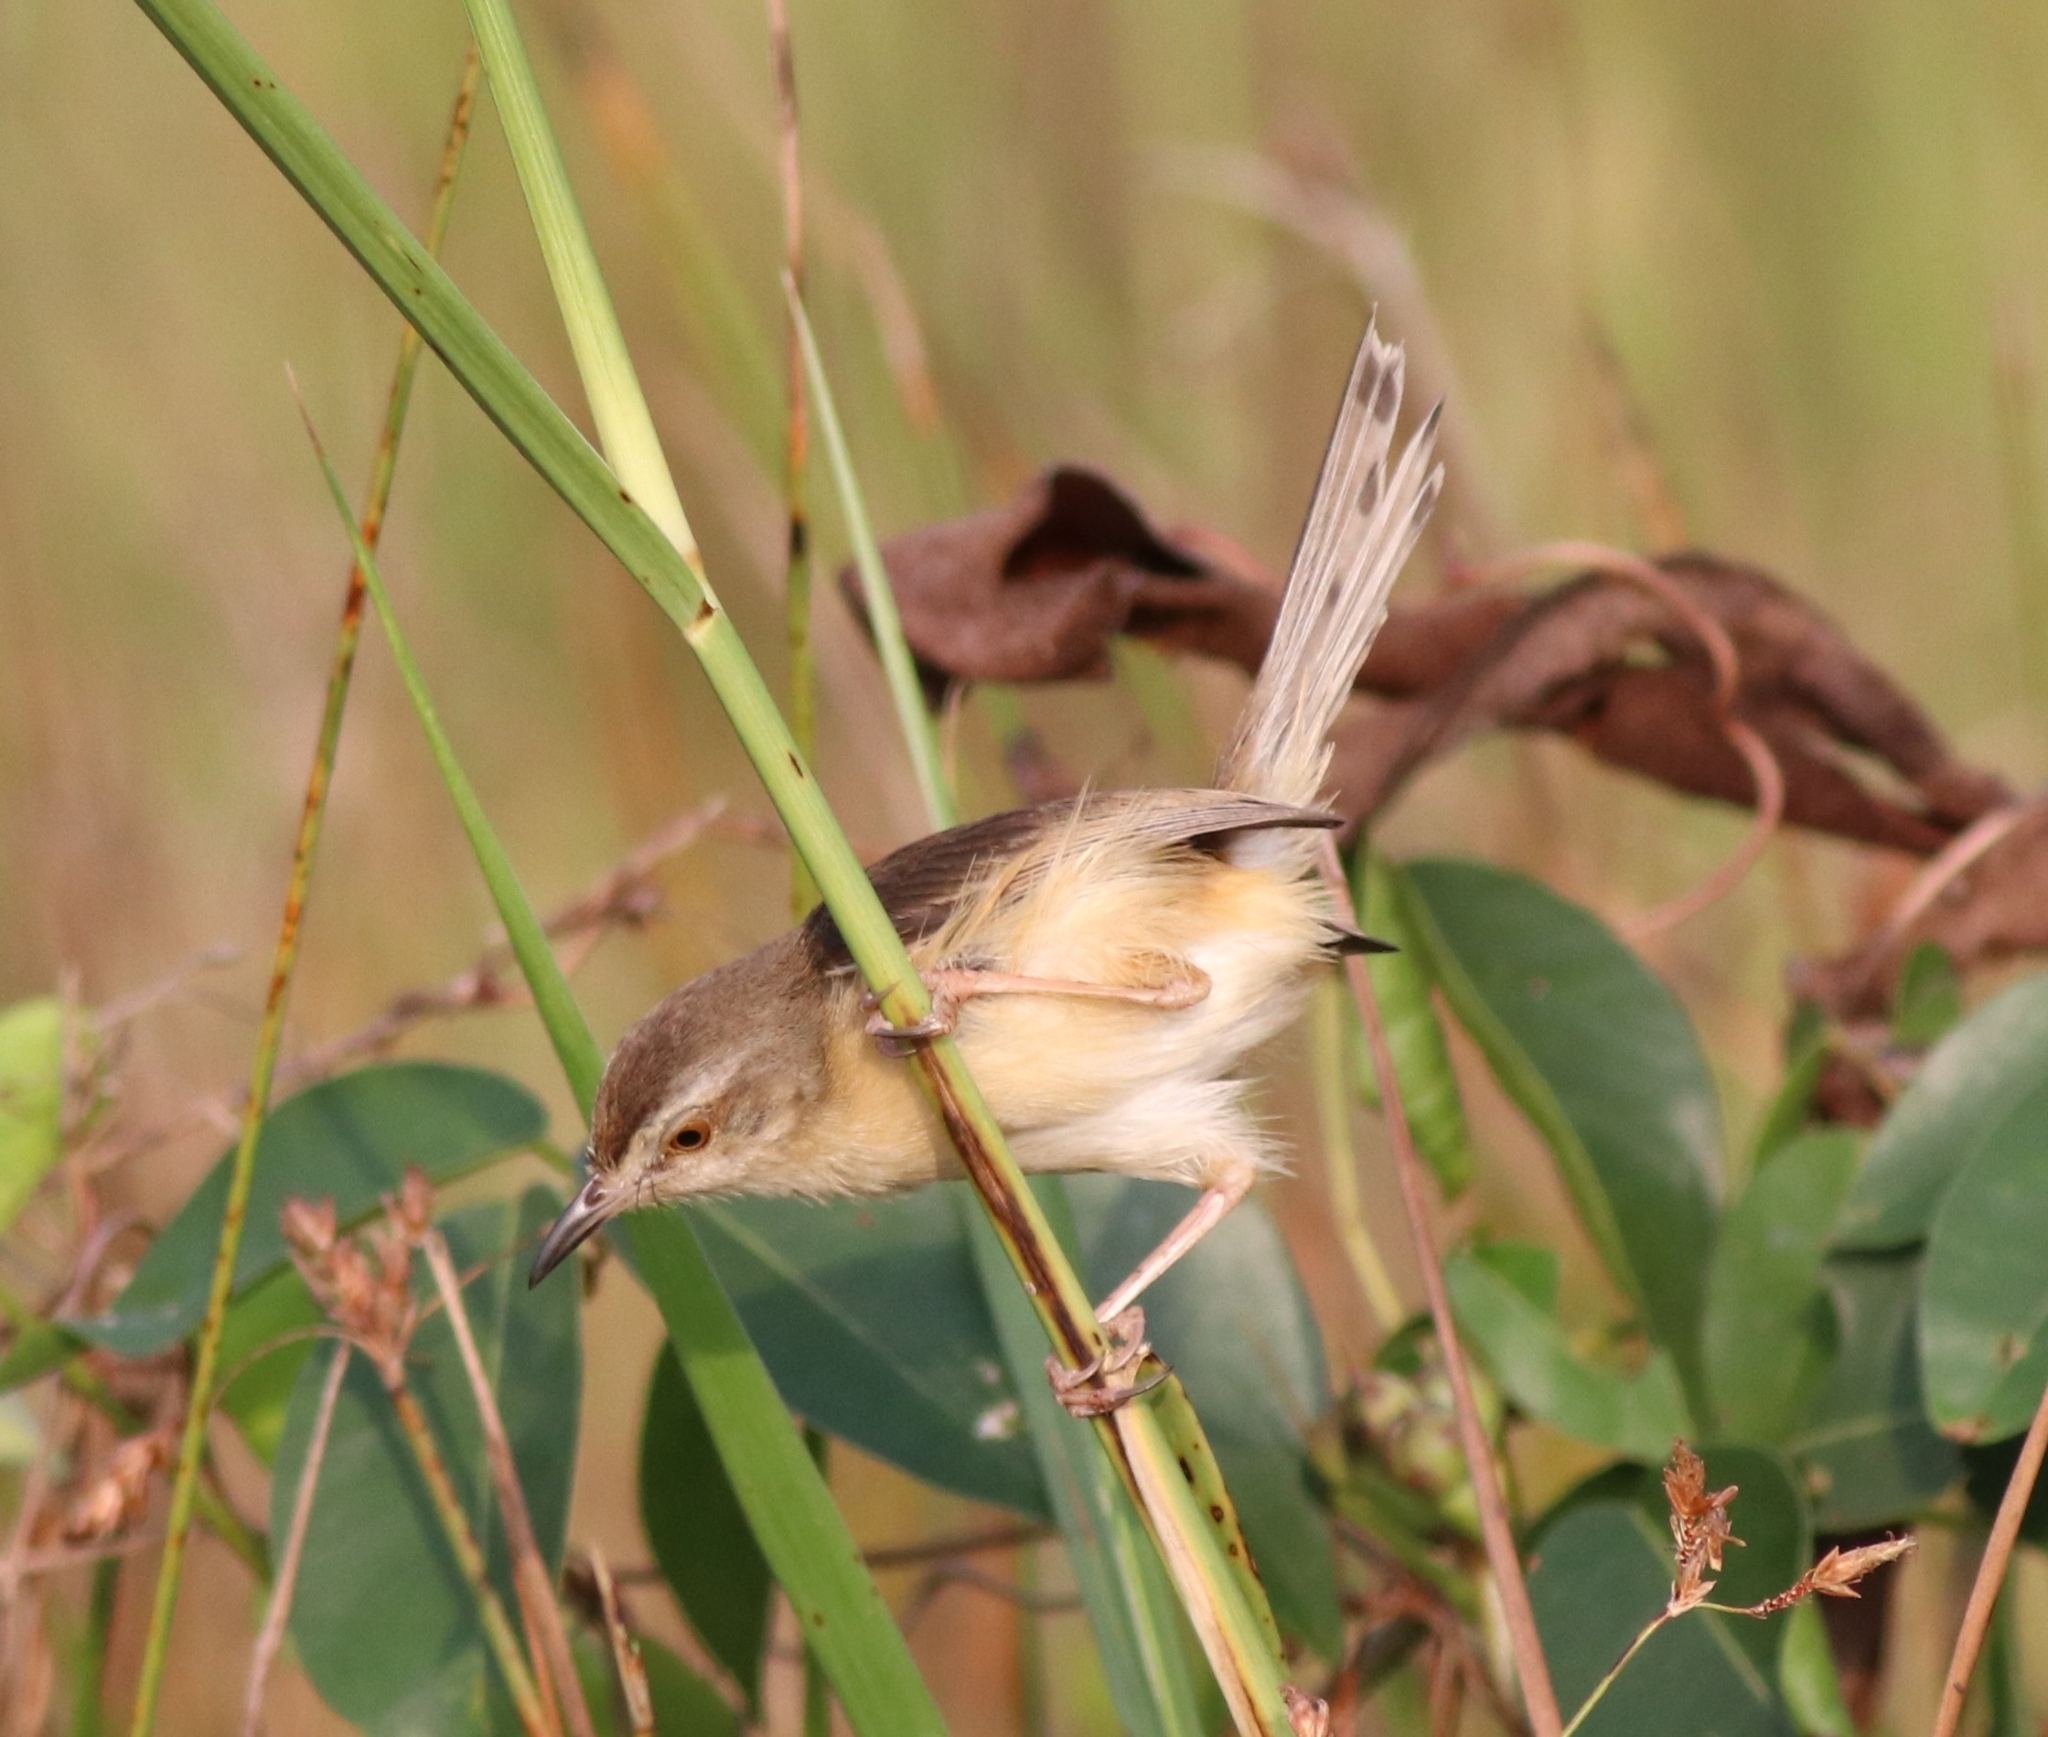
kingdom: Animalia
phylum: Chordata
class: Aves
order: Passeriformes
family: Cisticolidae
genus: Prinia
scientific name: Prinia inornata
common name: Plain prinia
